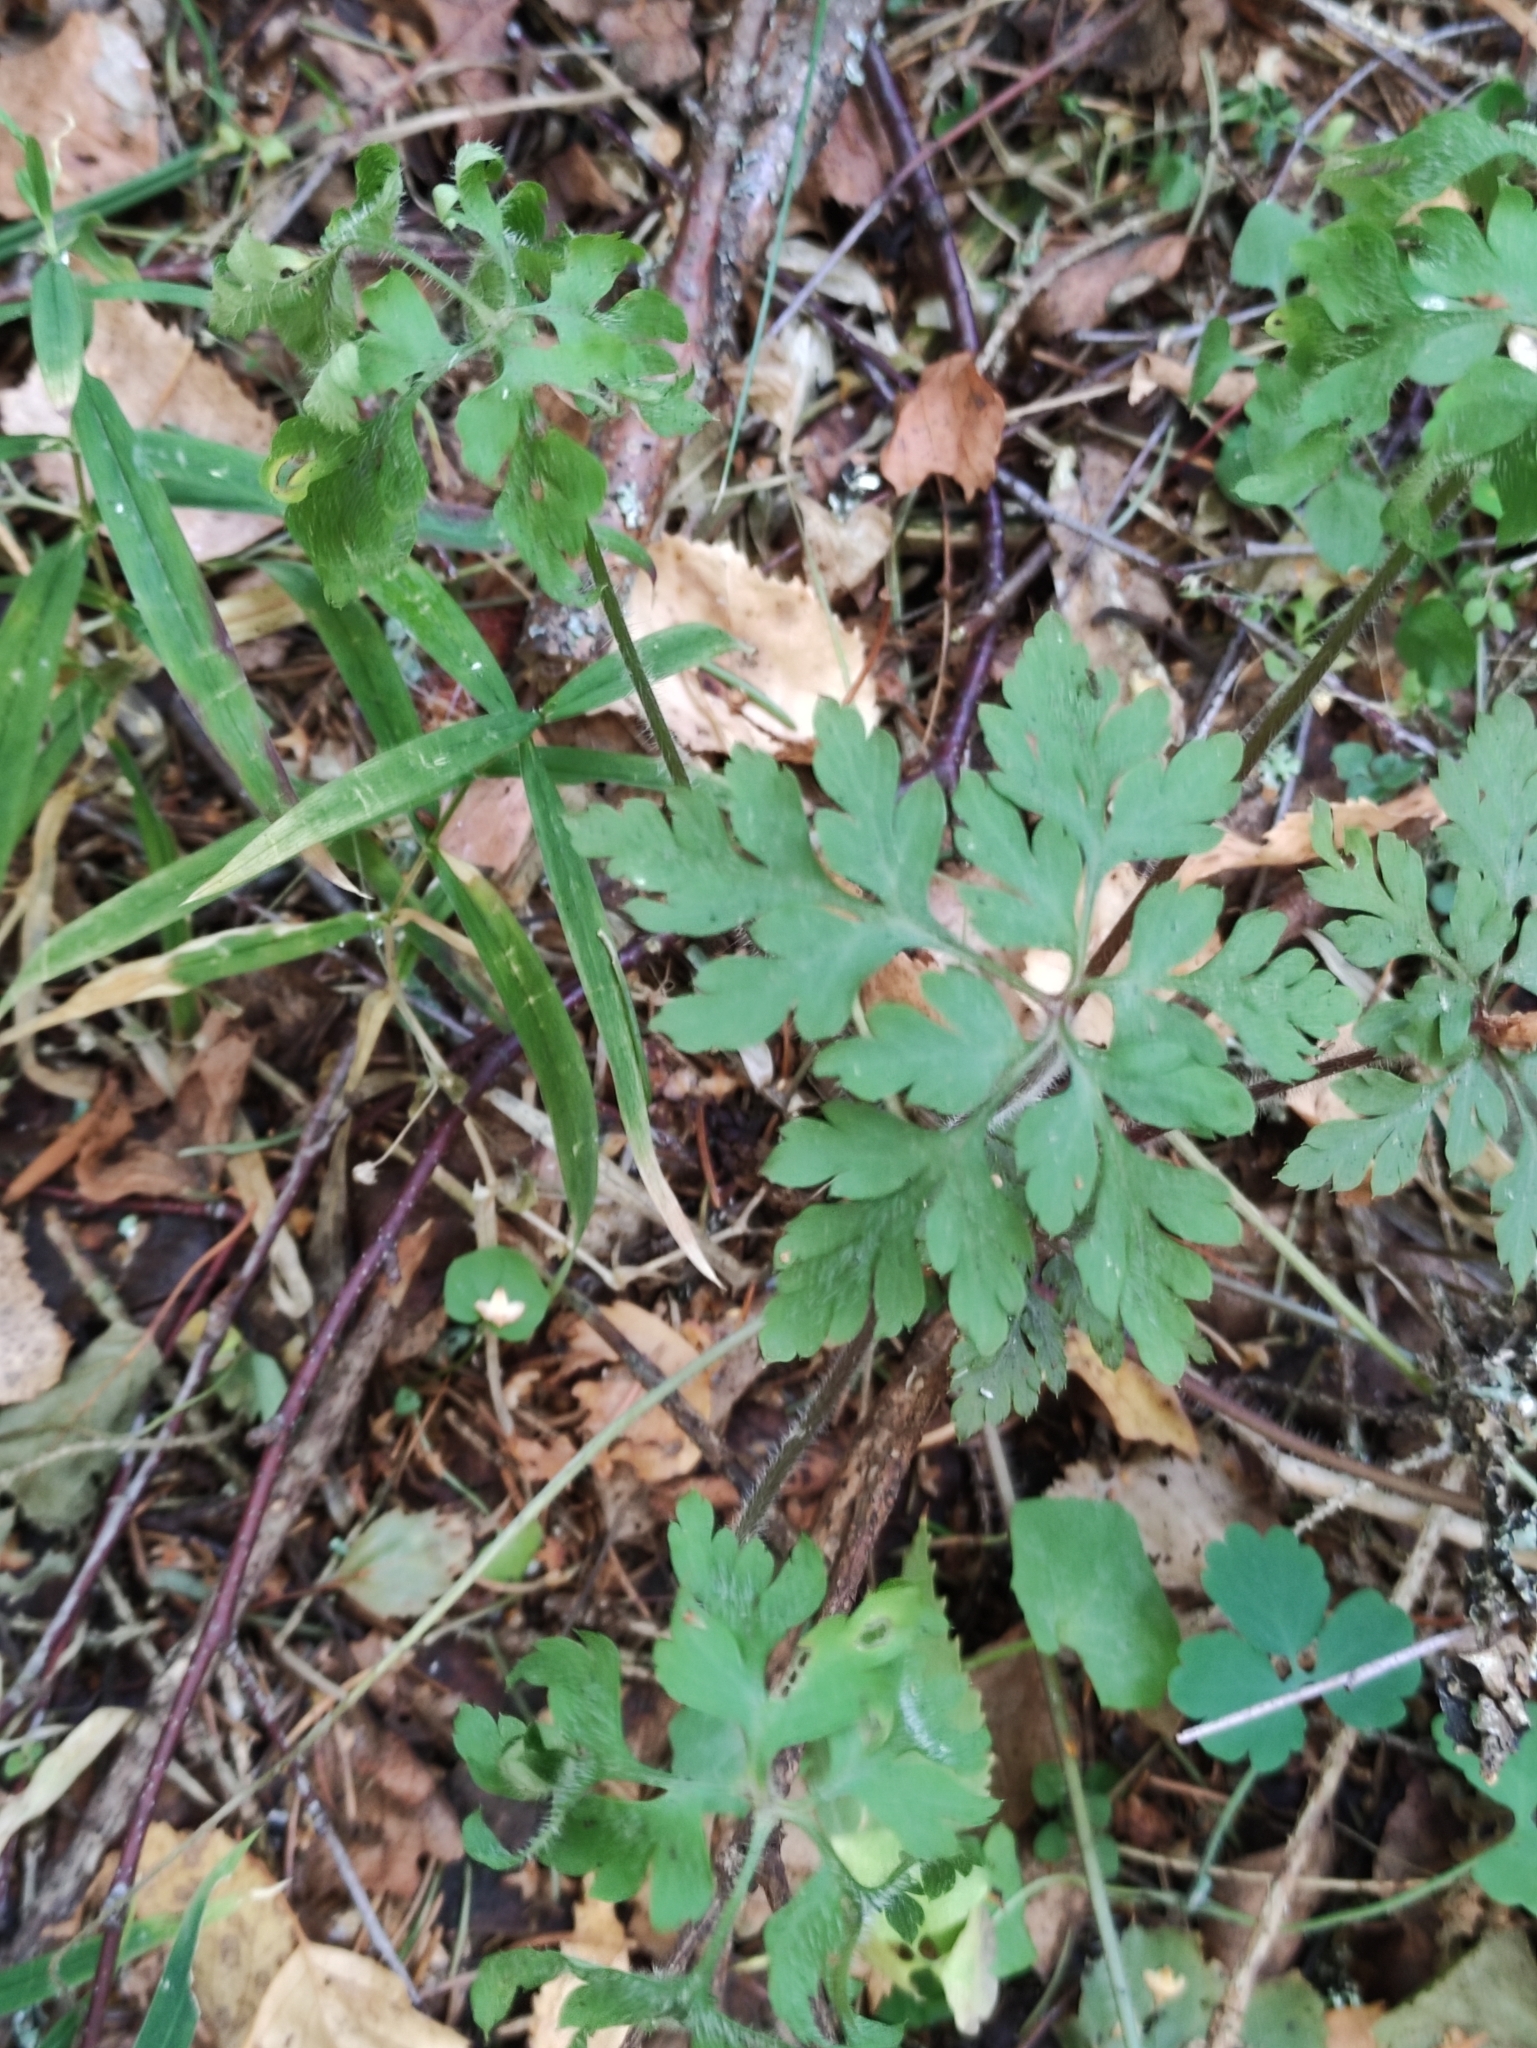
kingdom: Plantae
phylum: Tracheophyta
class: Magnoliopsida
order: Geraniales
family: Geraniaceae
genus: Geranium
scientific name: Geranium robertianum
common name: Herb-robert
